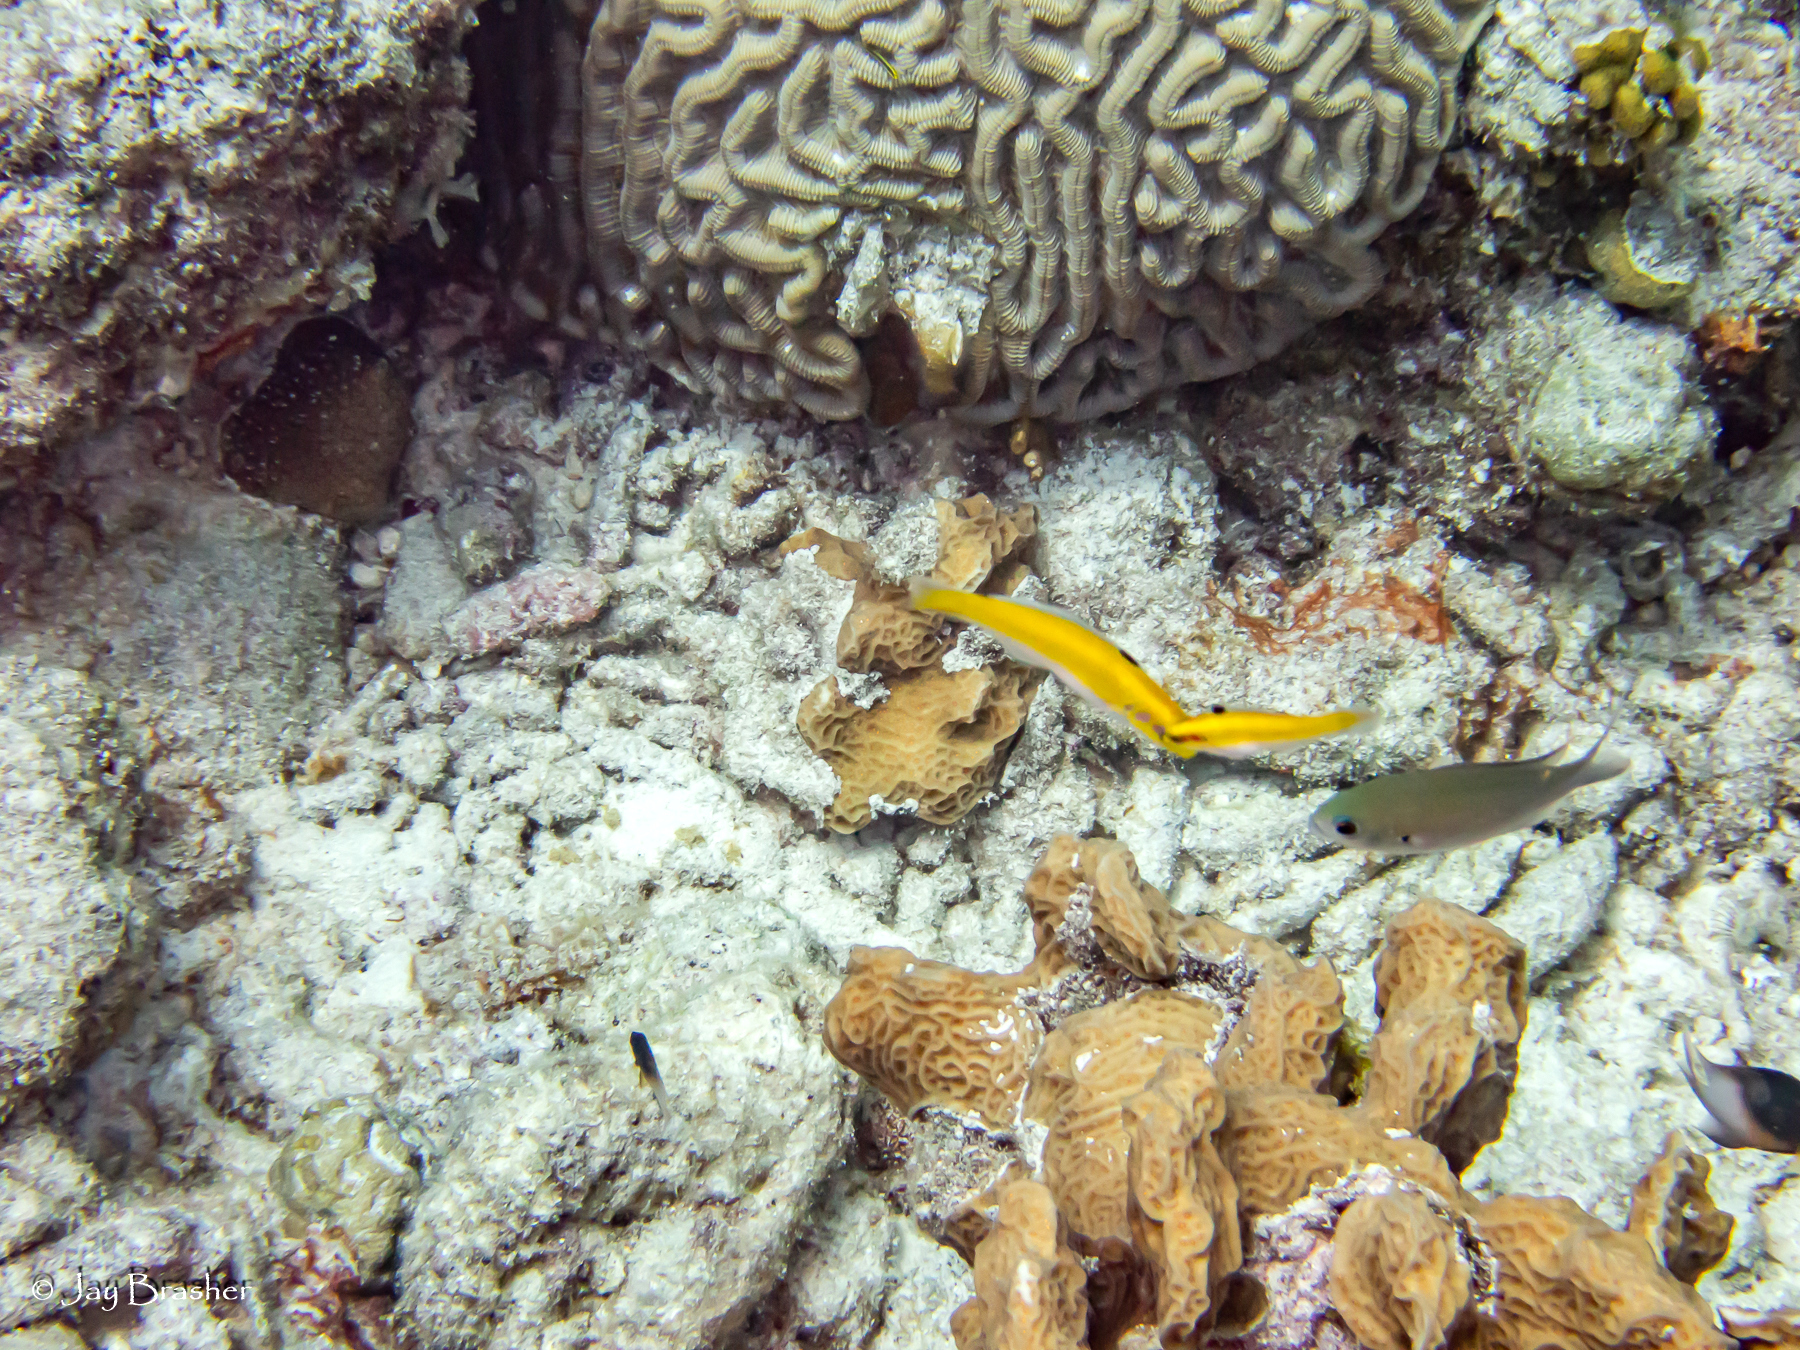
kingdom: Animalia
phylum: Chordata
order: Perciformes
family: Pomacentridae
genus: Chromis
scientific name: Chromis multilineata
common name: Brown chromis
